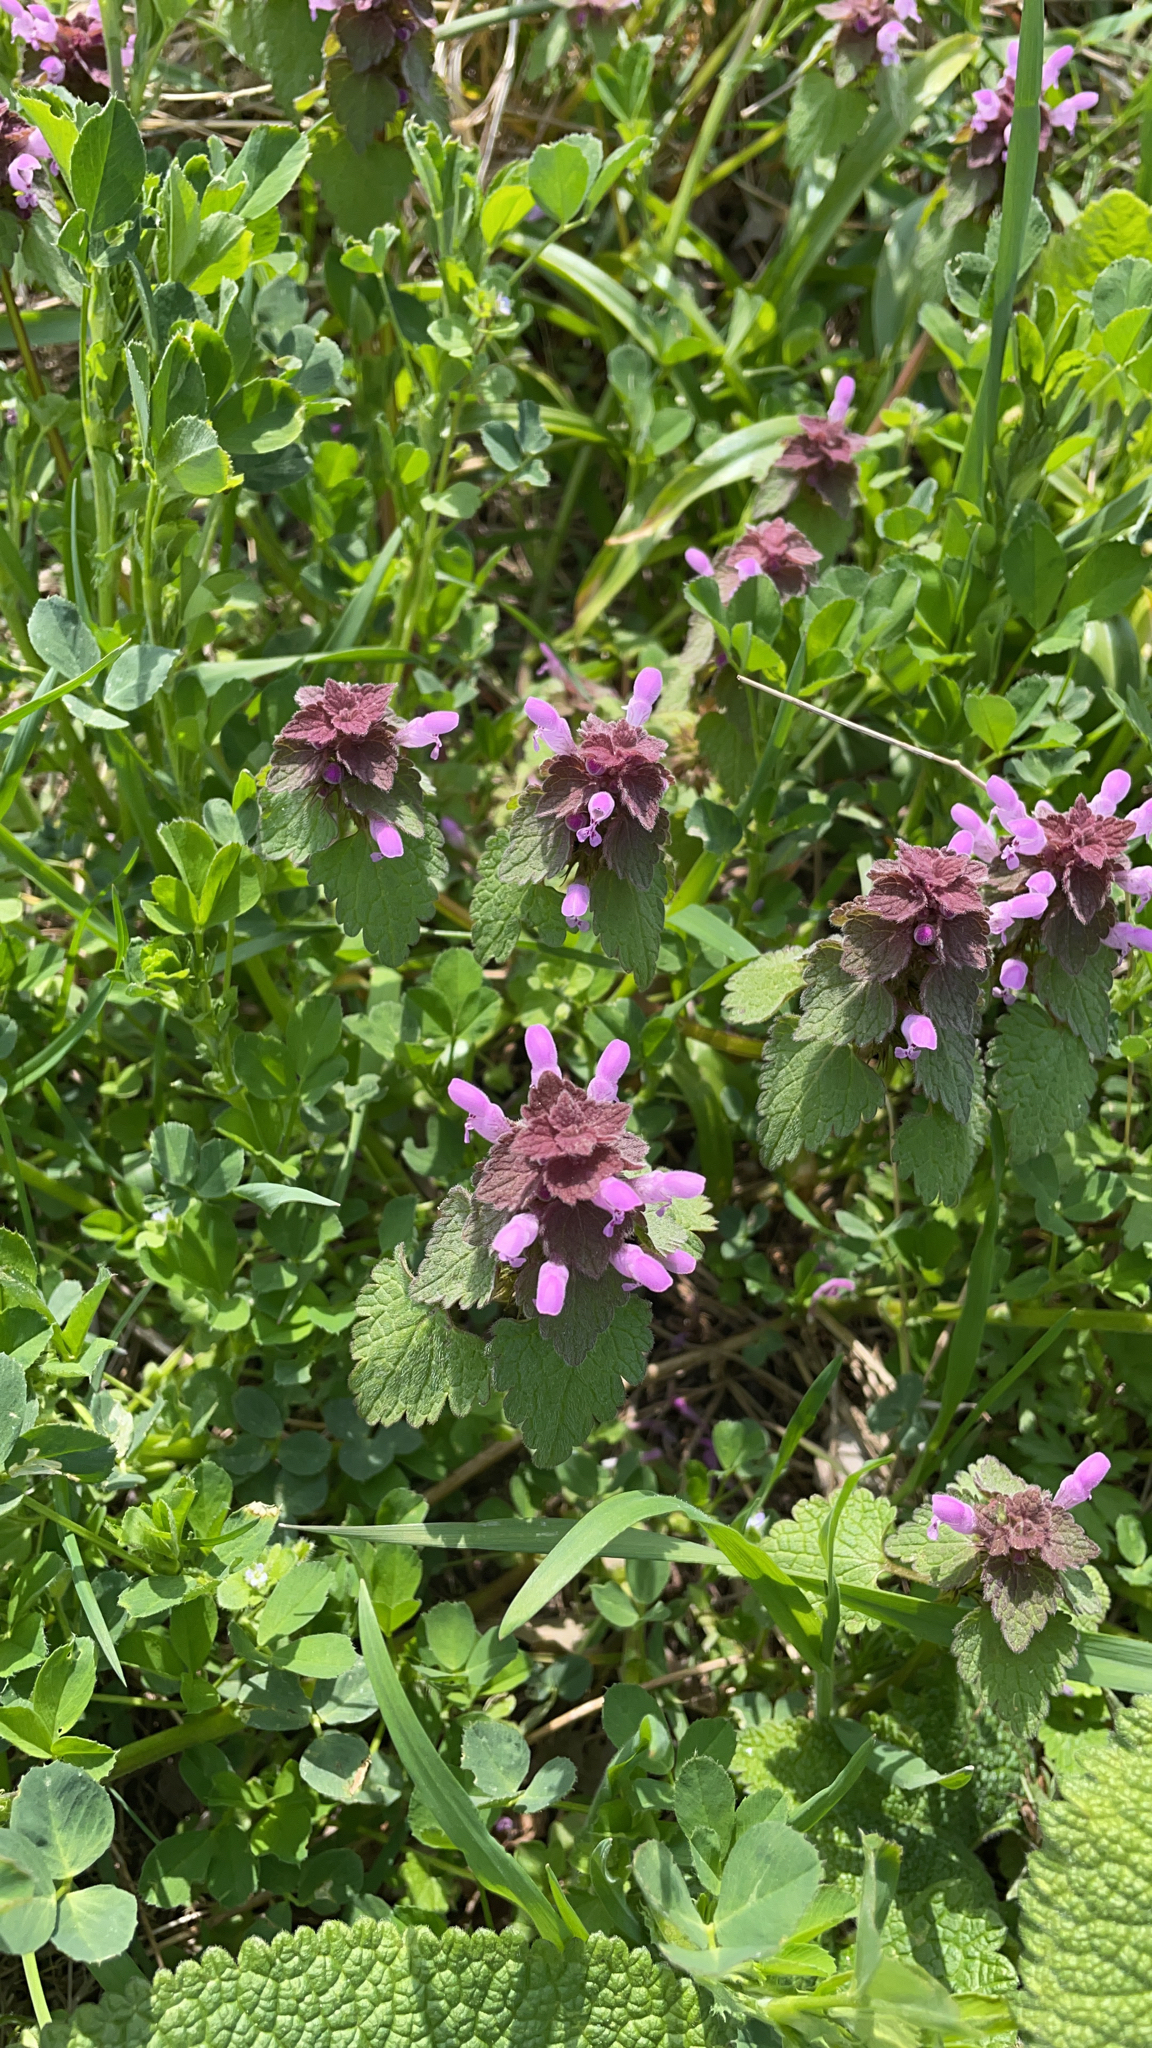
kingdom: Plantae
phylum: Tracheophyta
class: Magnoliopsida
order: Lamiales
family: Lamiaceae
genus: Lamium
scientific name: Lamium purpureum
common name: Red dead-nettle
